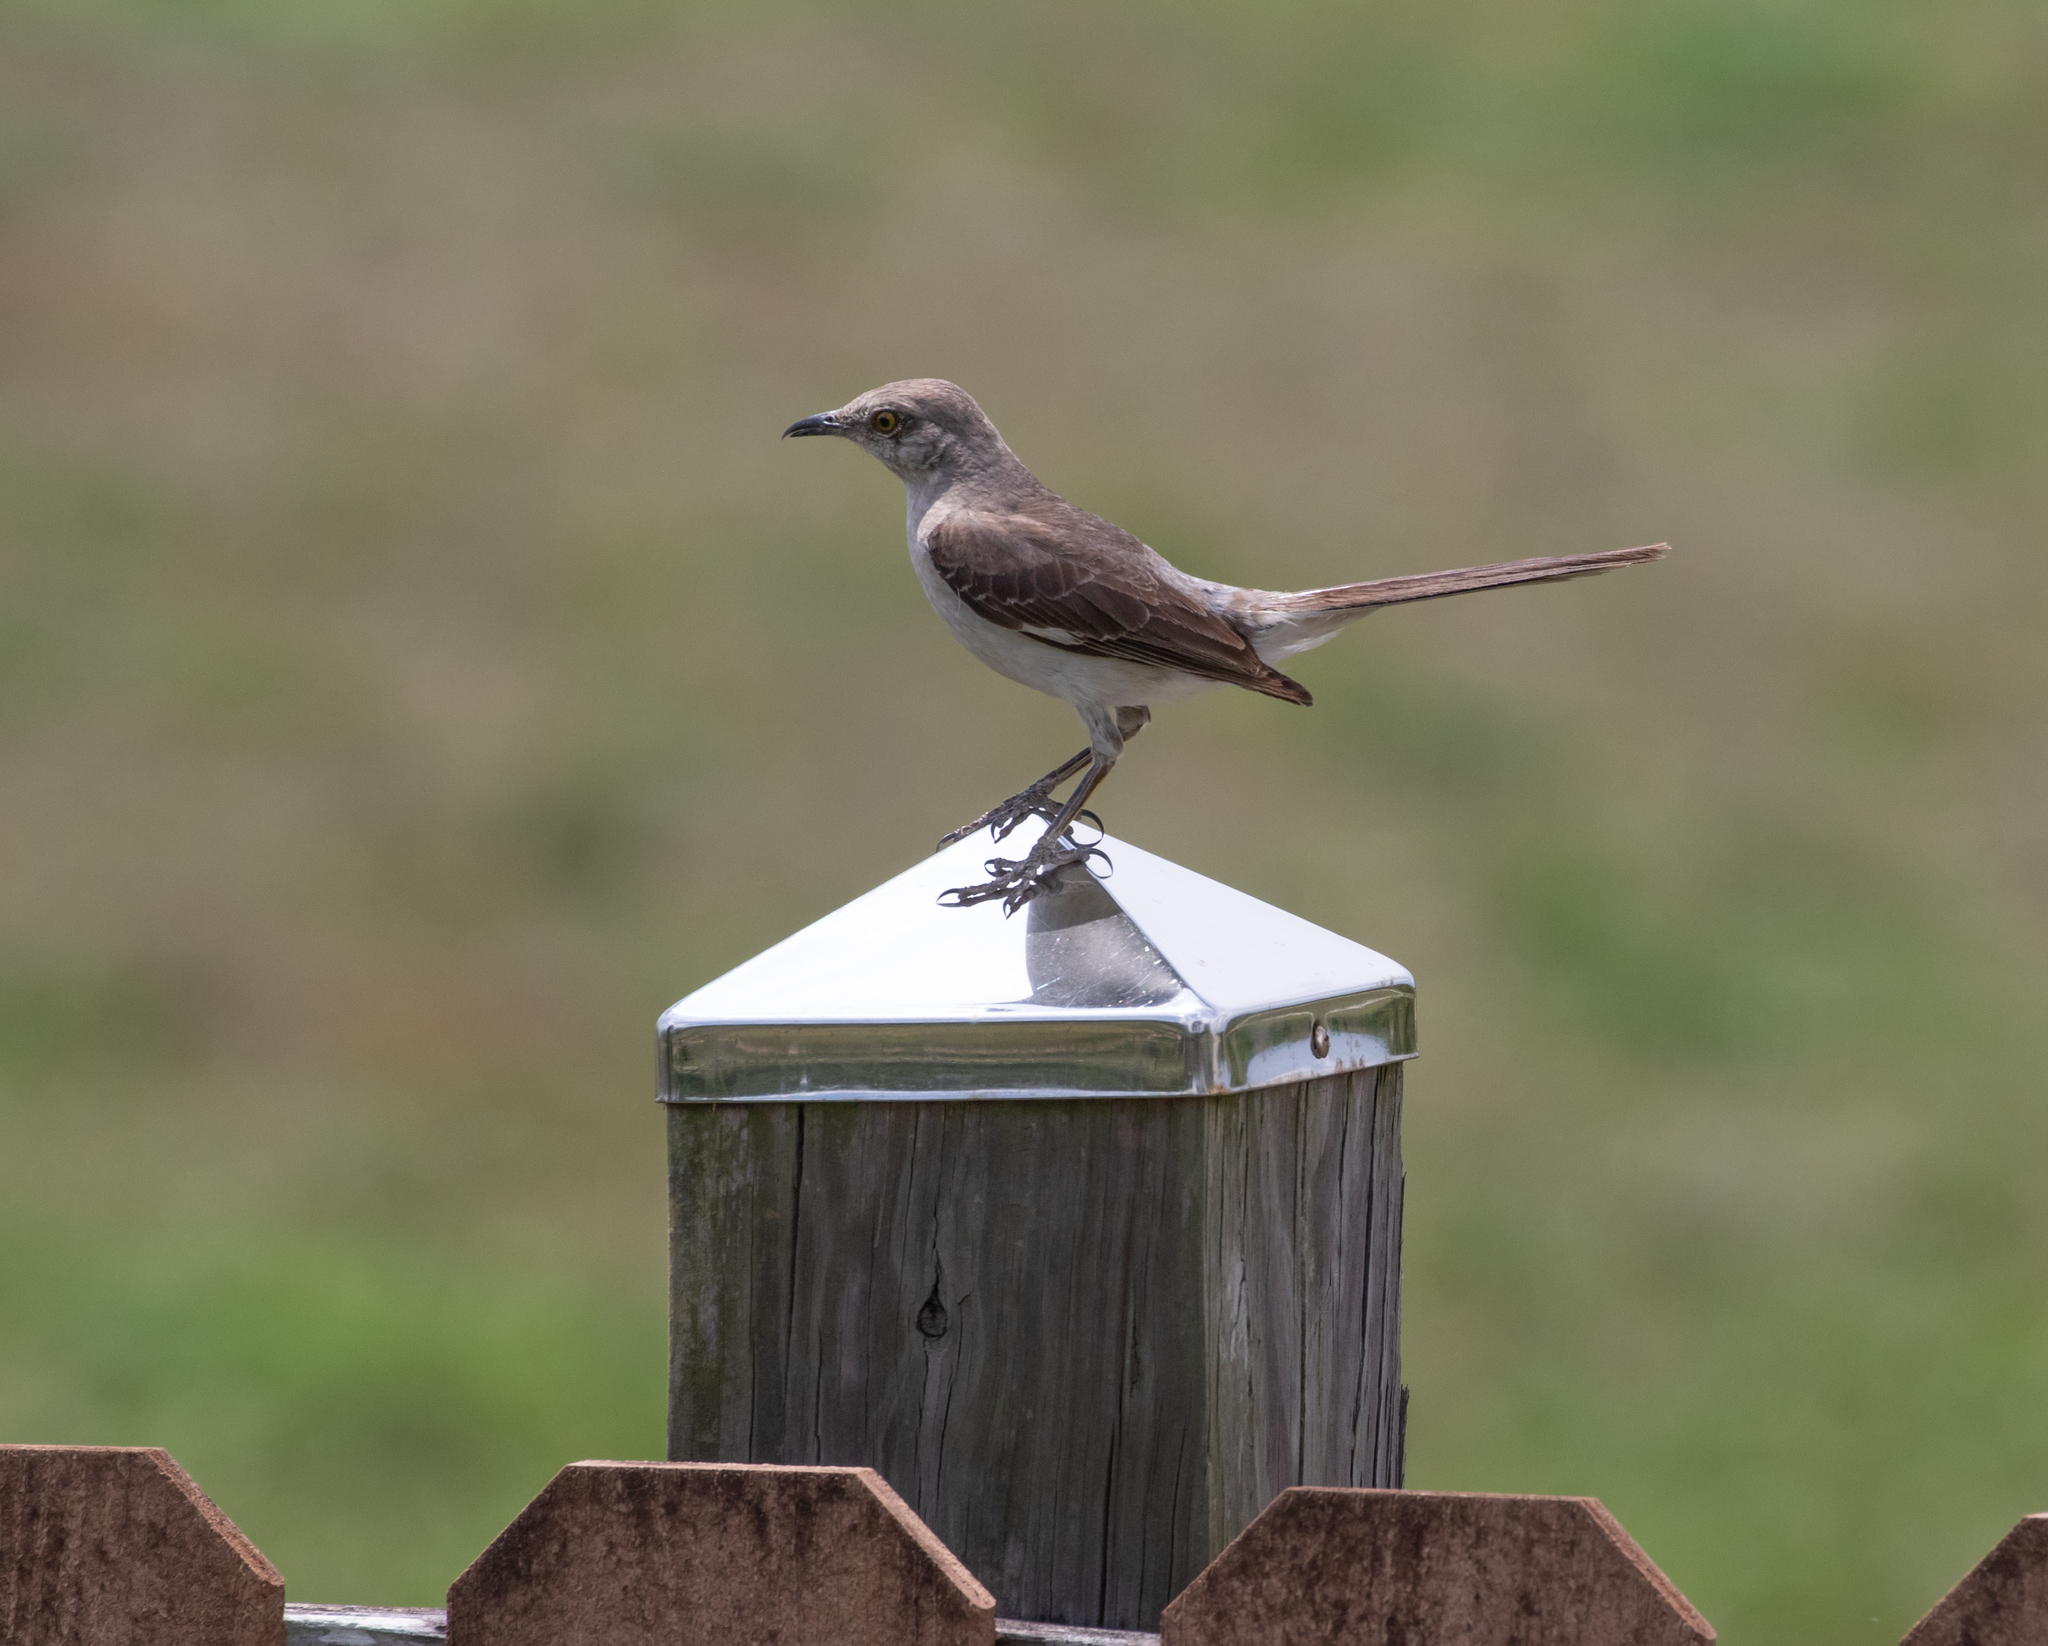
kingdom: Animalia
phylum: Chordata
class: Aves
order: Passeriformes
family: Mimidae
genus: Mimus
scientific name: Mimus polyglottos
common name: Northern mockingbird
